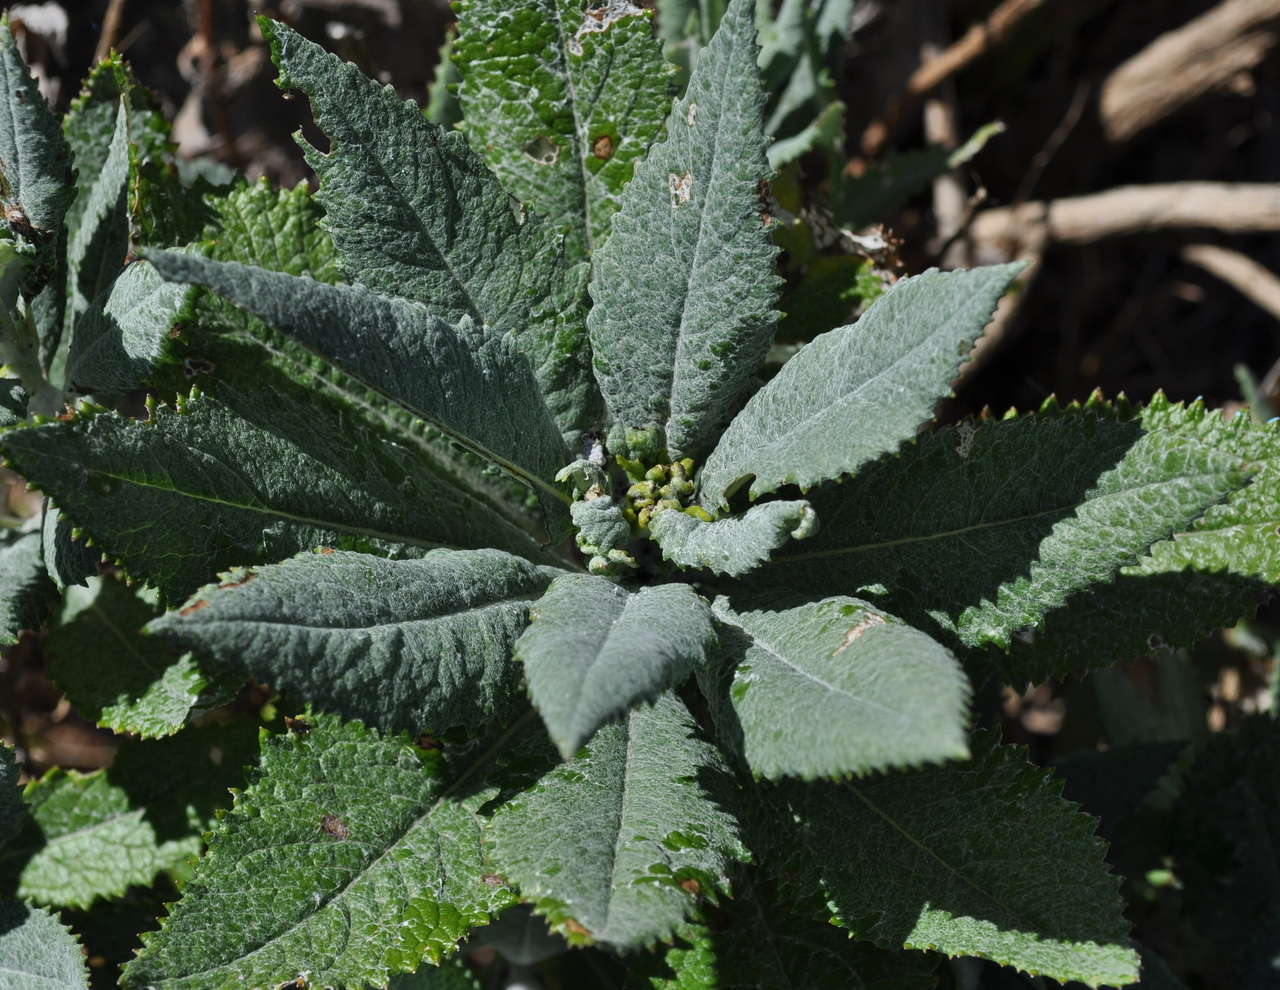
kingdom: Plantae
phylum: Tracheophyta
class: Magnoliopsida
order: Asterales
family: Asteraceae
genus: Senecio
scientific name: Senecio hypoleucus
